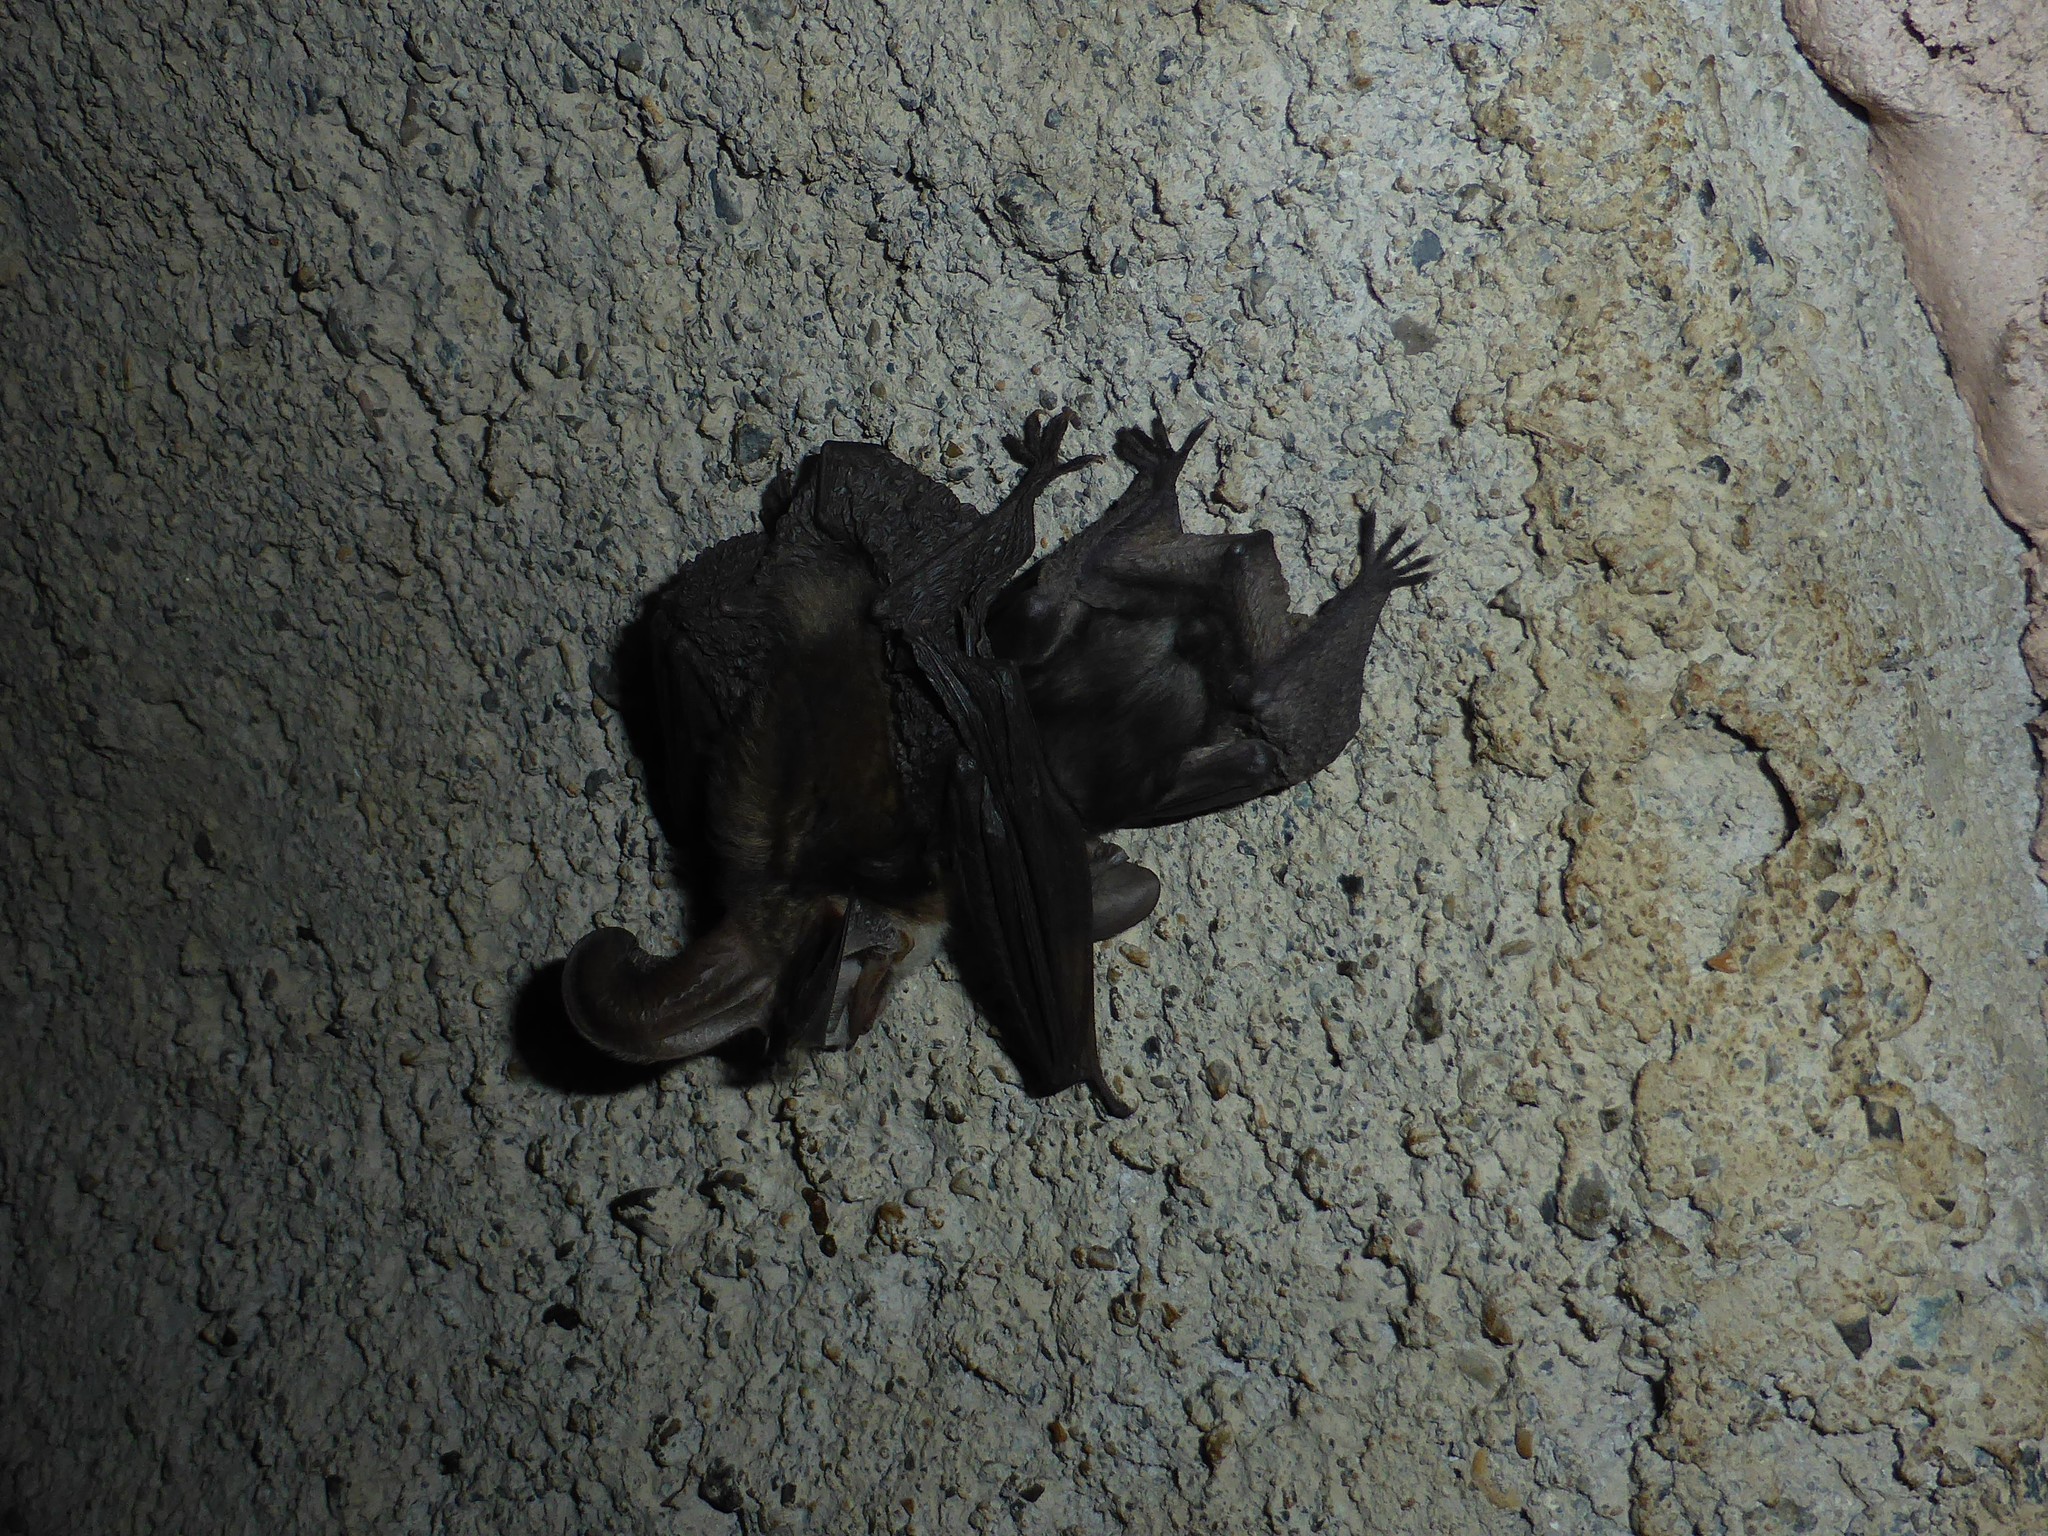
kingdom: Animalia
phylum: Chordata
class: Mammalia
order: Chiroptera
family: Vespertilionidae
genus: Plecotus
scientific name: Plecotus macrobullaris
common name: Mountain long-eared bat
